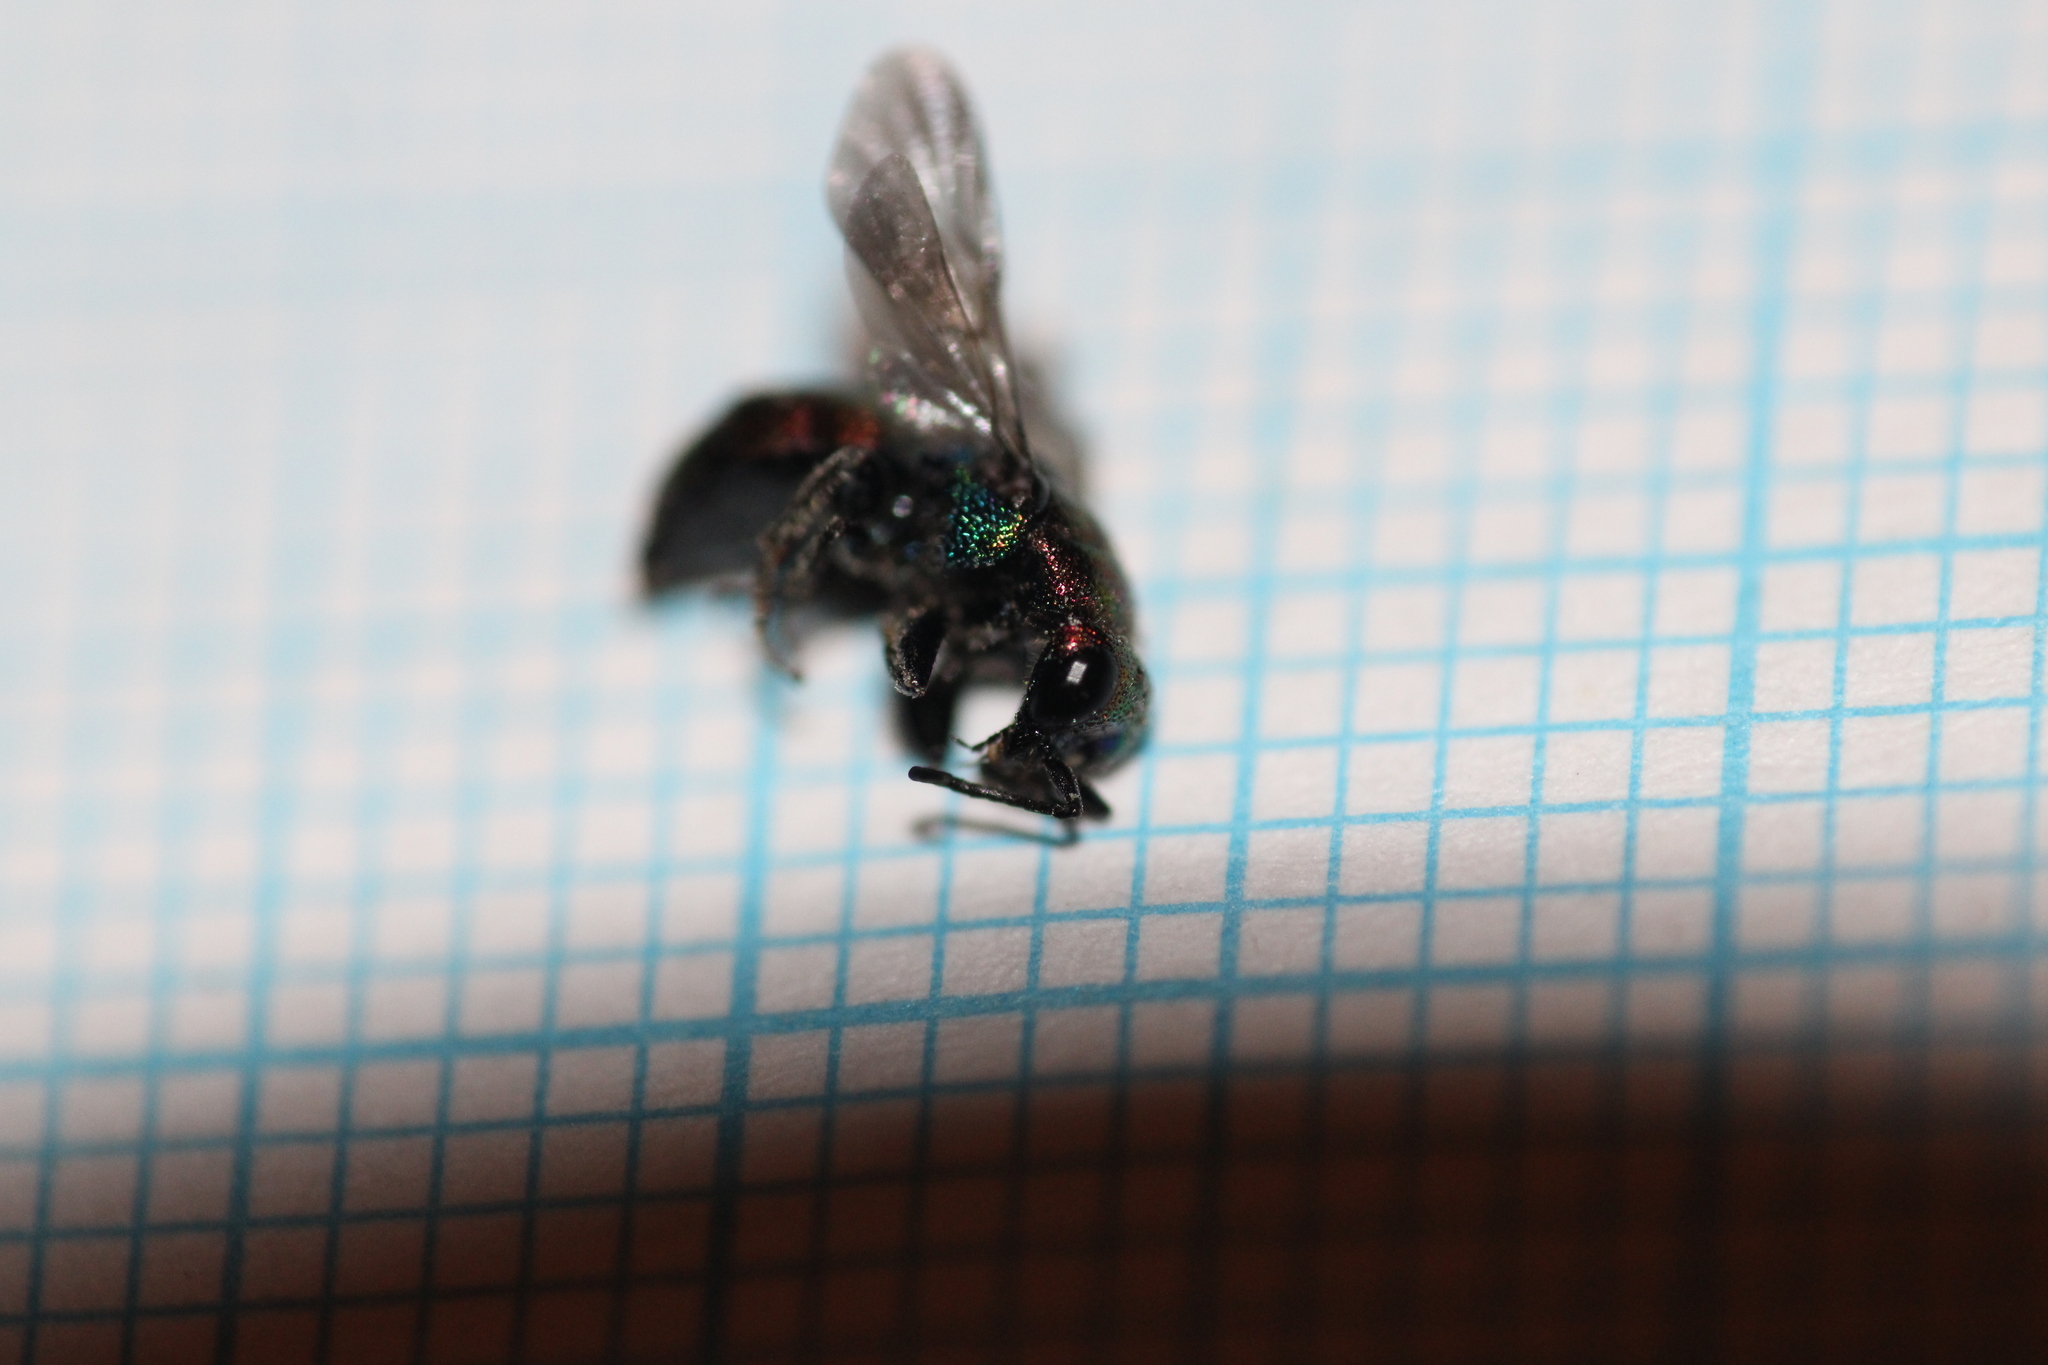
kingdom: Animalia
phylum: Arthropoda
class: Insecta
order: Hymenoptera
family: Chrysididae
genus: Holopyga
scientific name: Holopyga fervida
